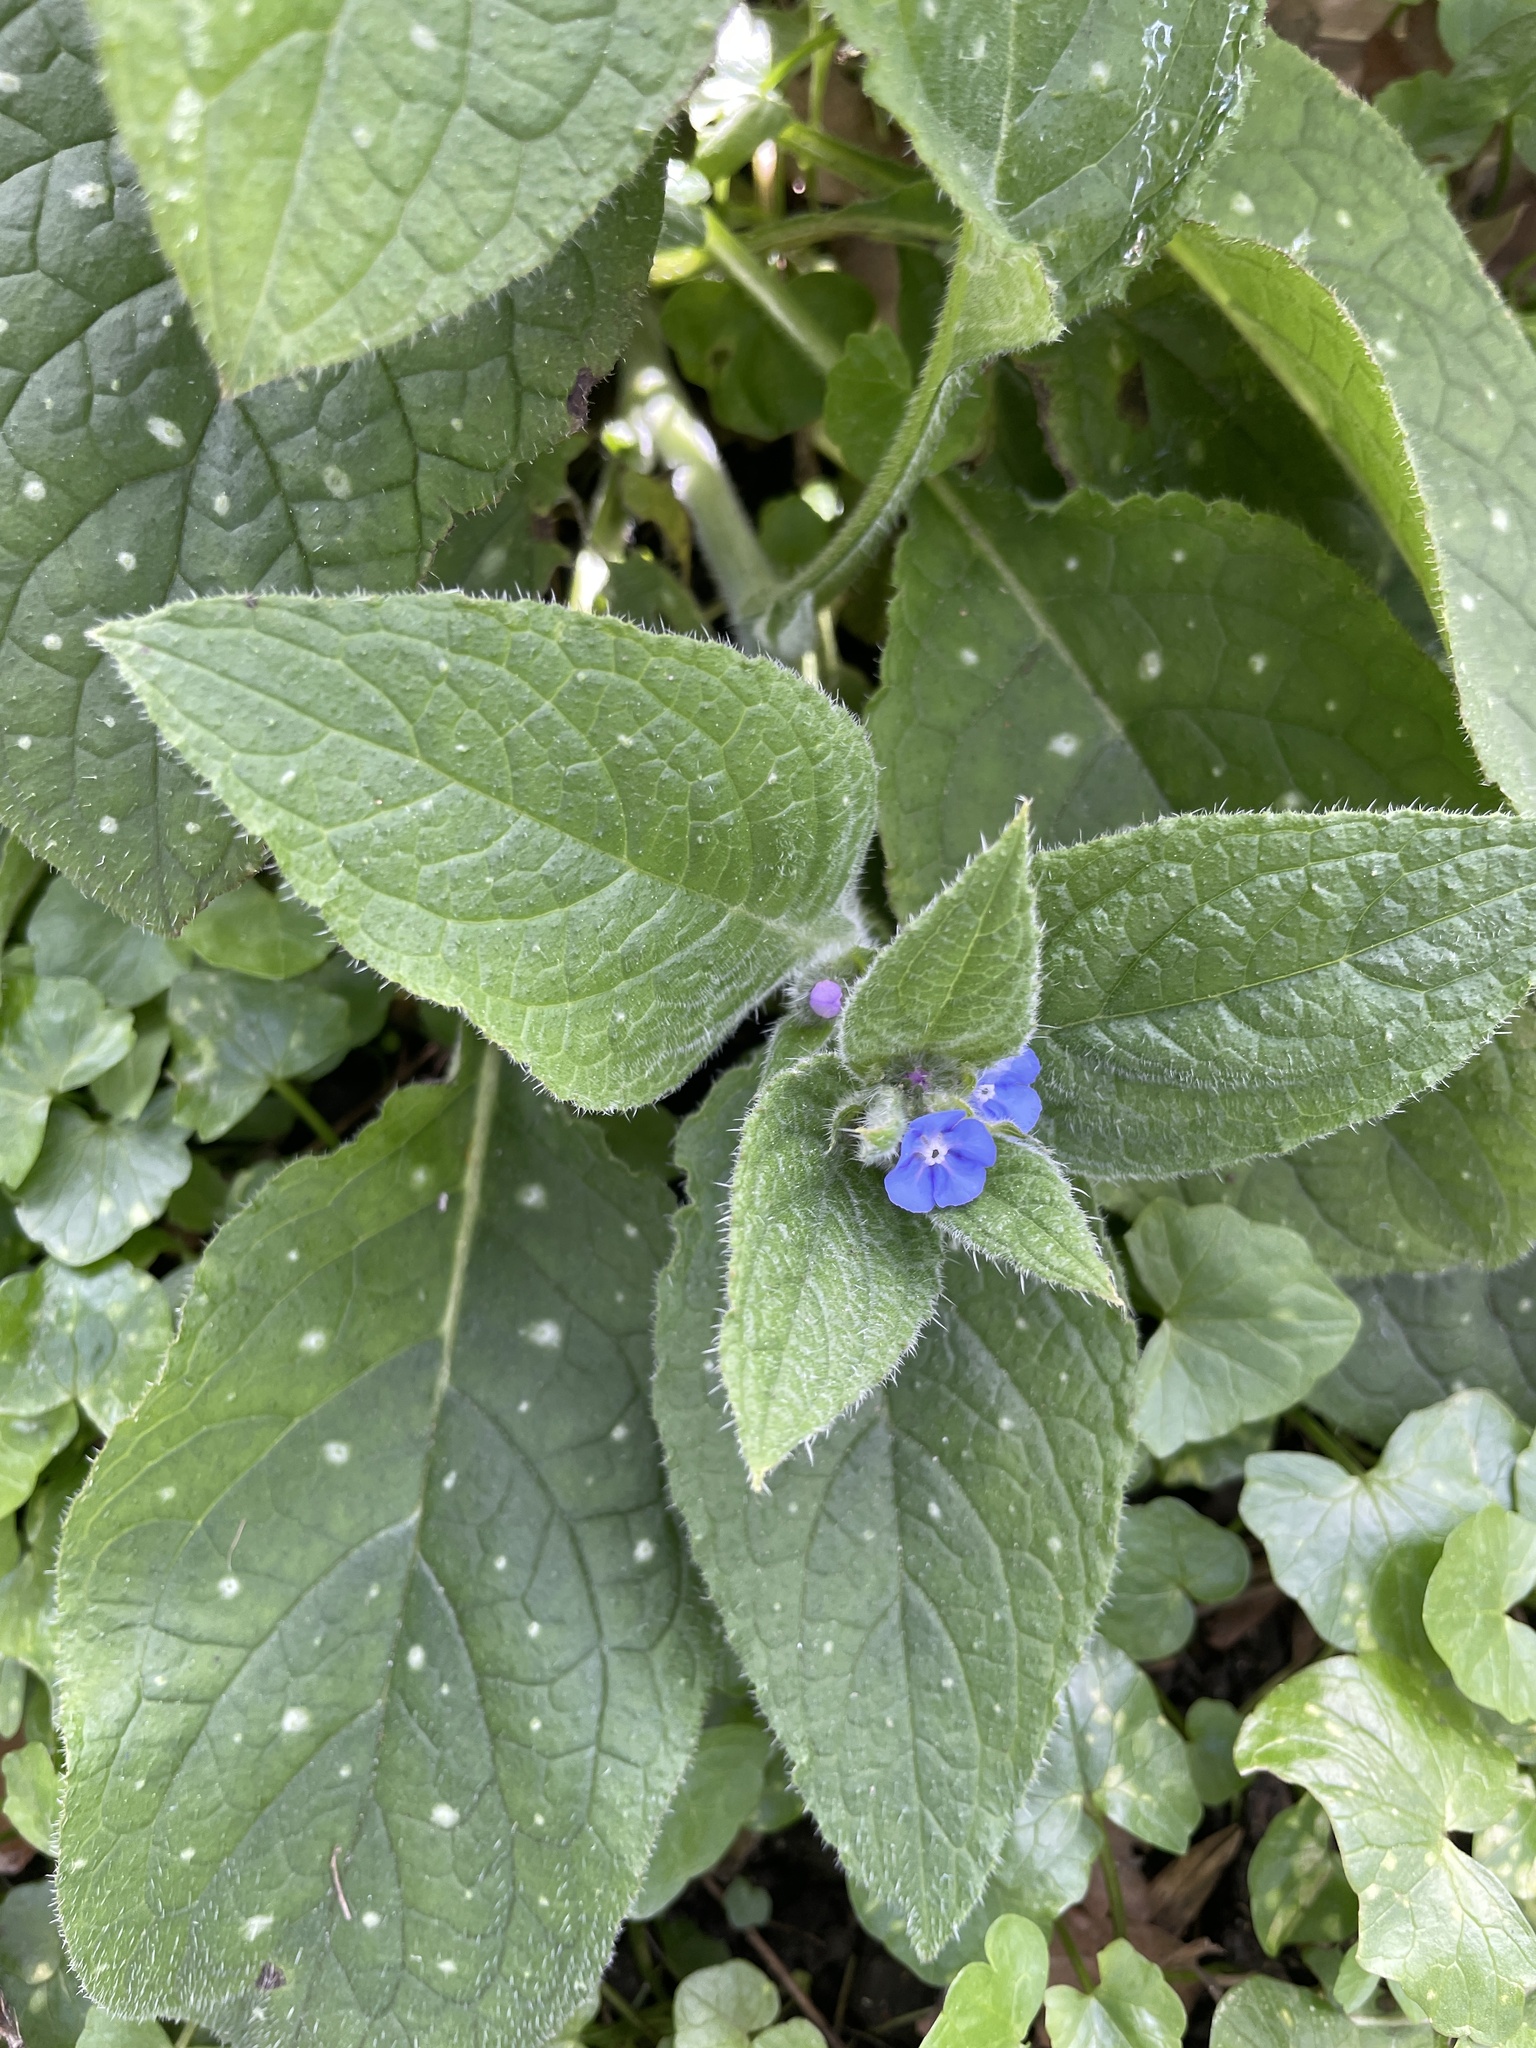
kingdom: Plantae
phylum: Tracheophyta
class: Magnoliopsida
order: Boraginales
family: Boraginaceae
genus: Pentaglottis
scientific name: Pentaglottis sempervirens
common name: Green alkanet
